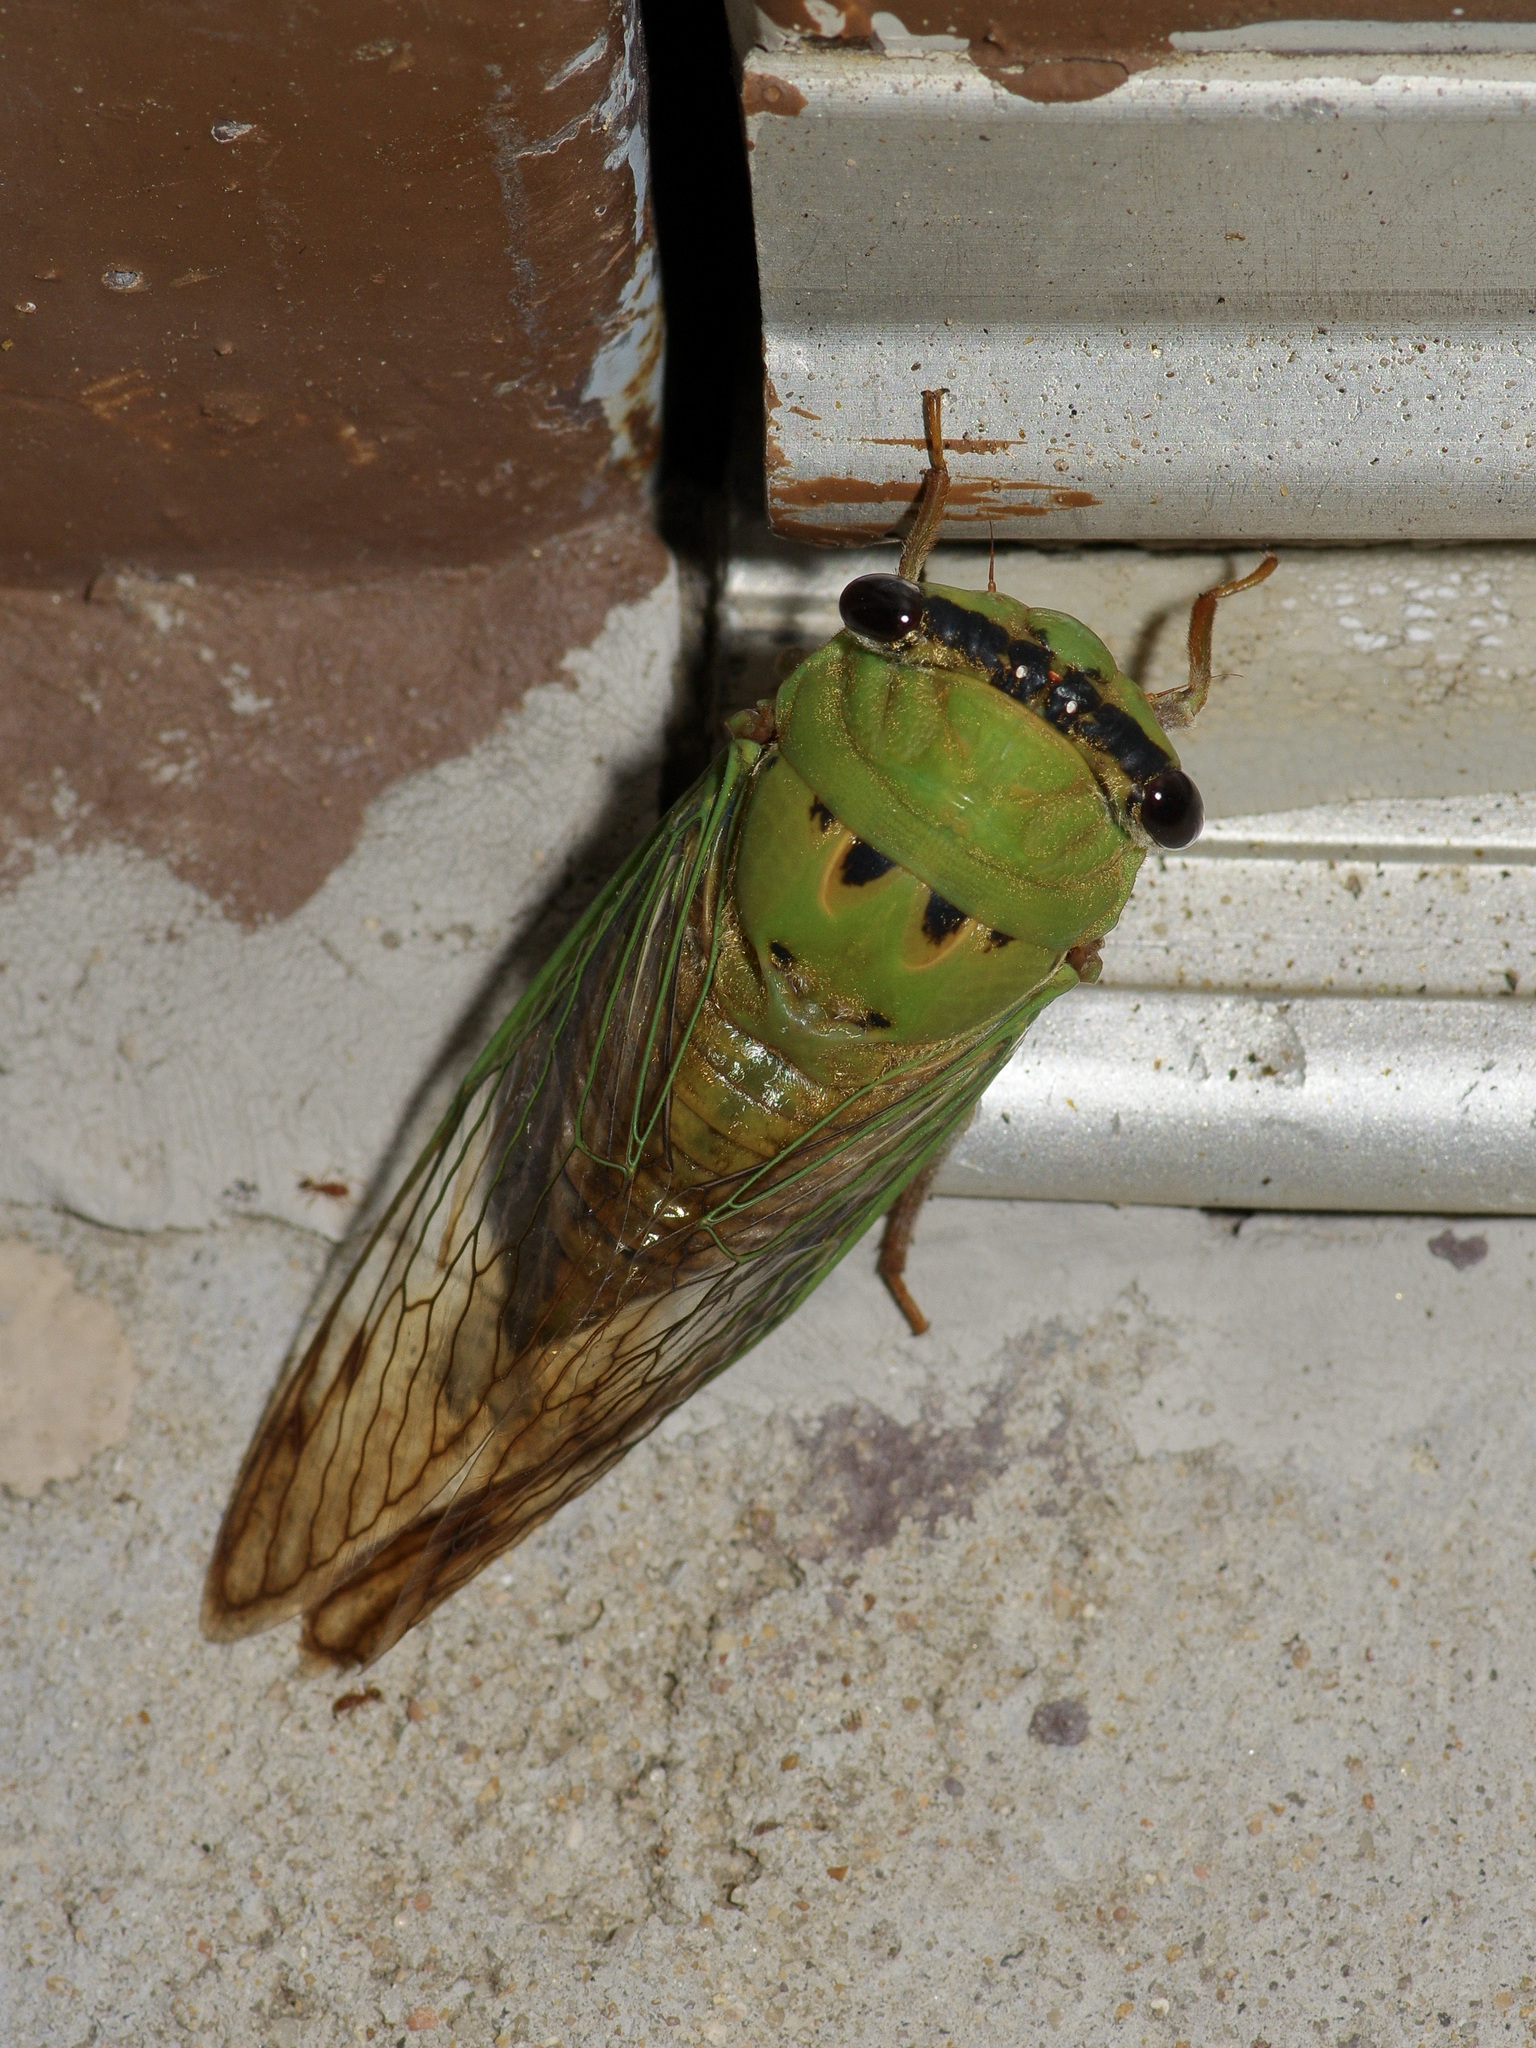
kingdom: Animalia
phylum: Arthropoda
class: Insecta
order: Hemiptera
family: Cicadidae
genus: Neotibicen
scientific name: Neotibicen superbus
